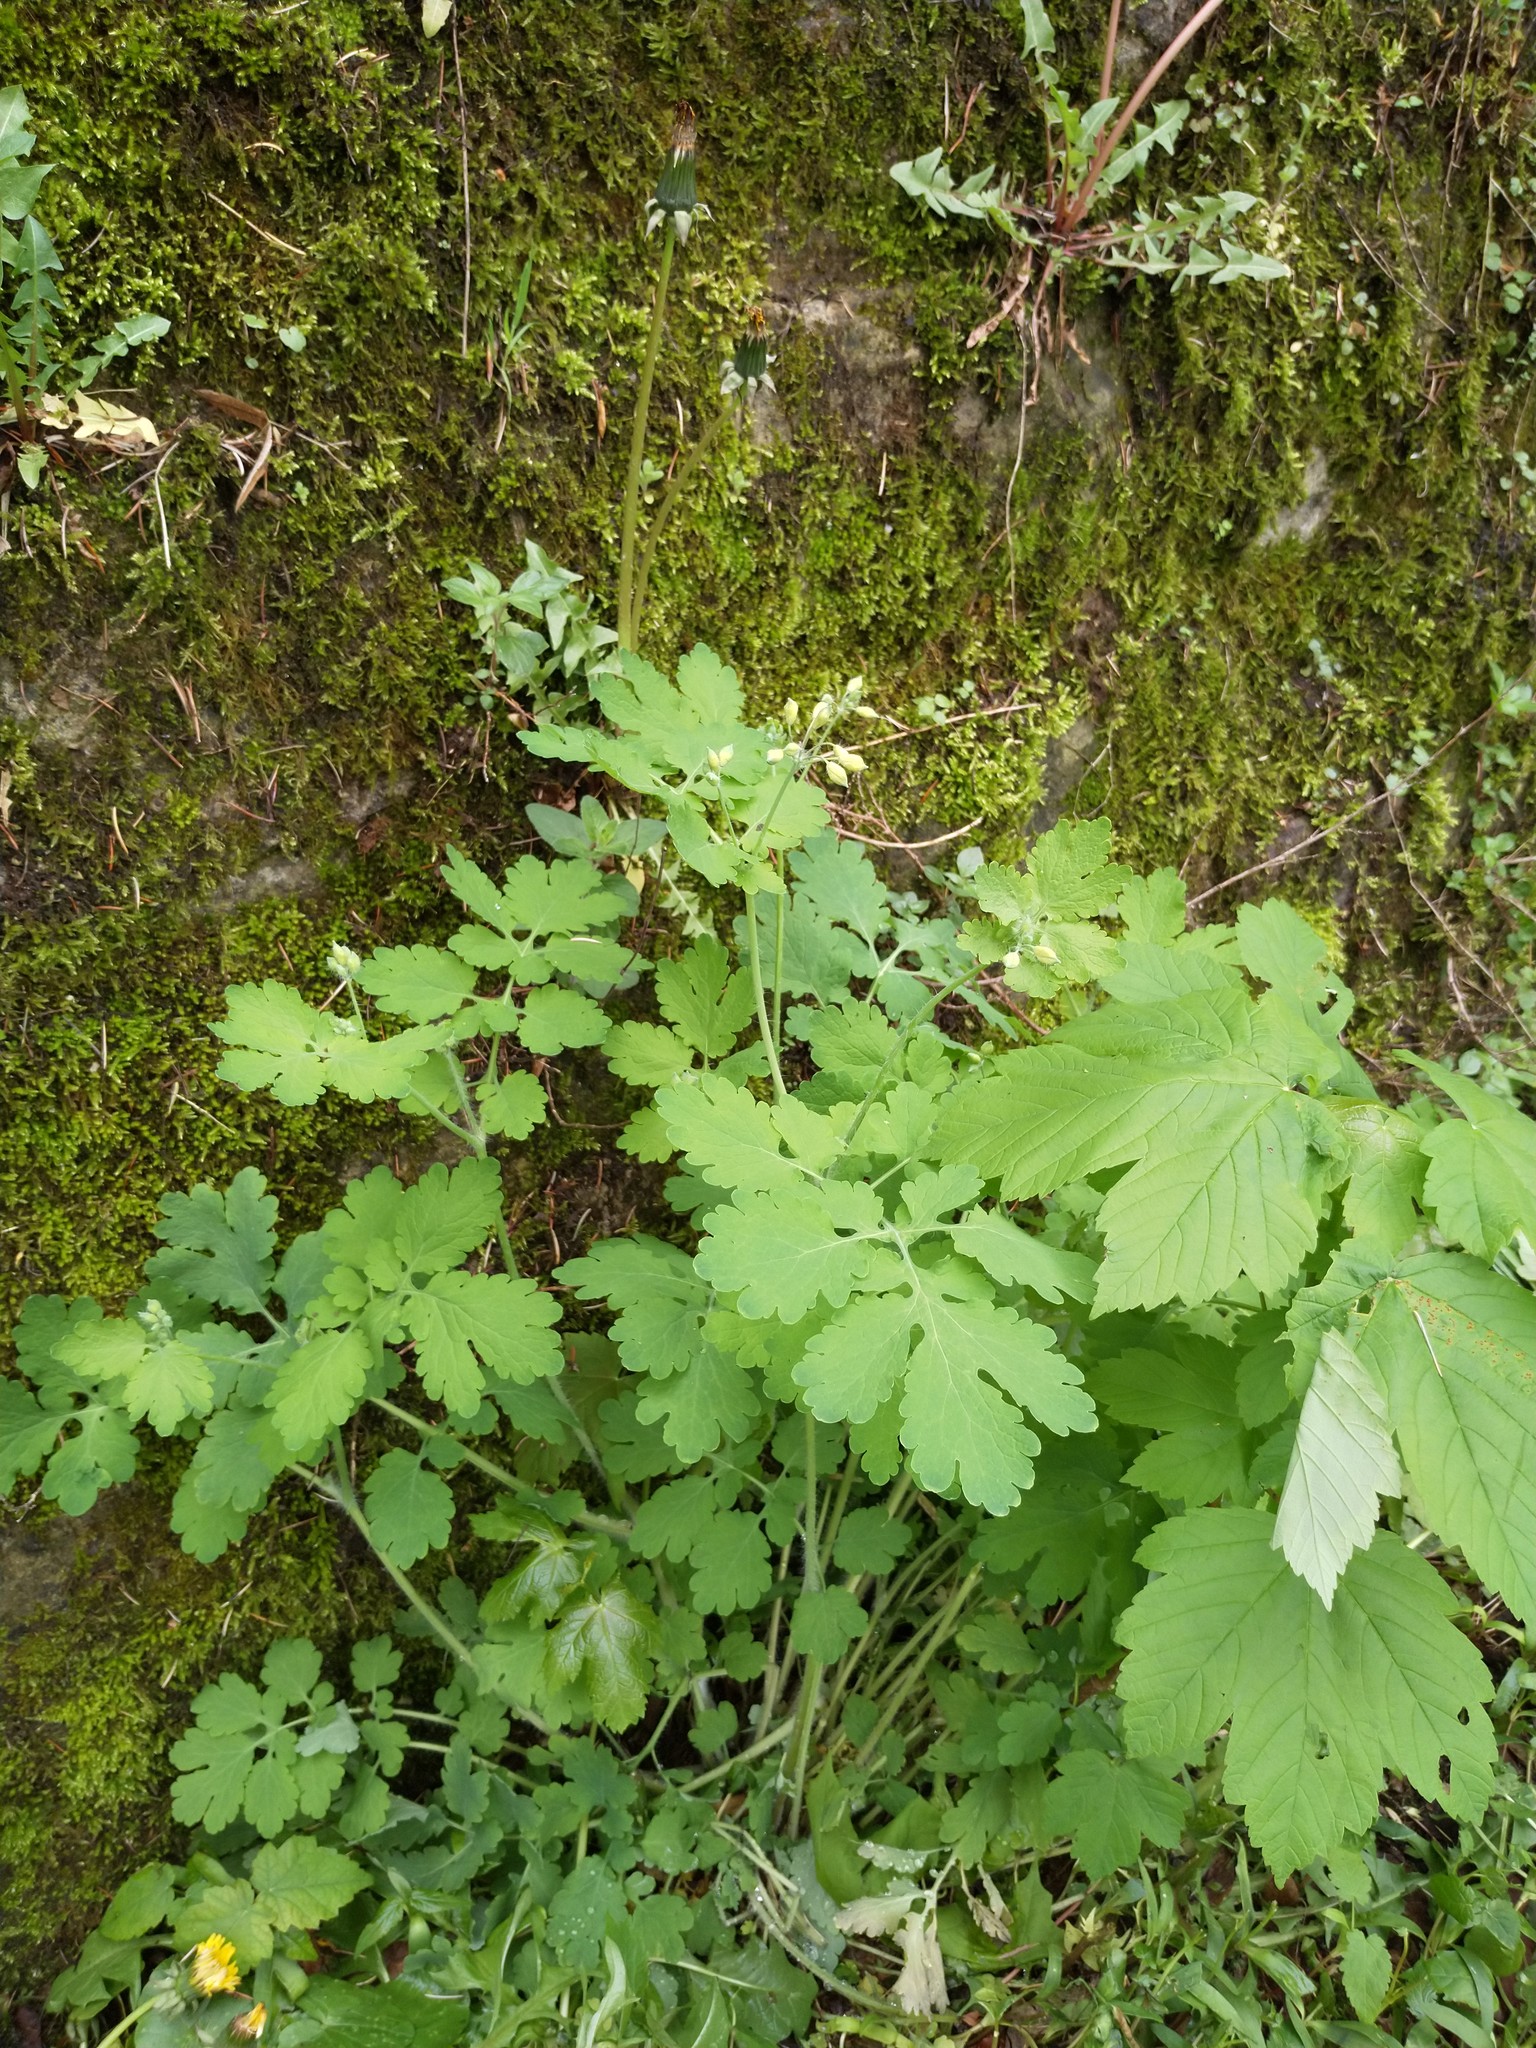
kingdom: Plantae
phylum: Tracheophyta
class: Magnoliopsida
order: Ranunculales
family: Papaveraceae
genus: Chelidonium
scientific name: Chelidonium majus
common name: Greater celandine
